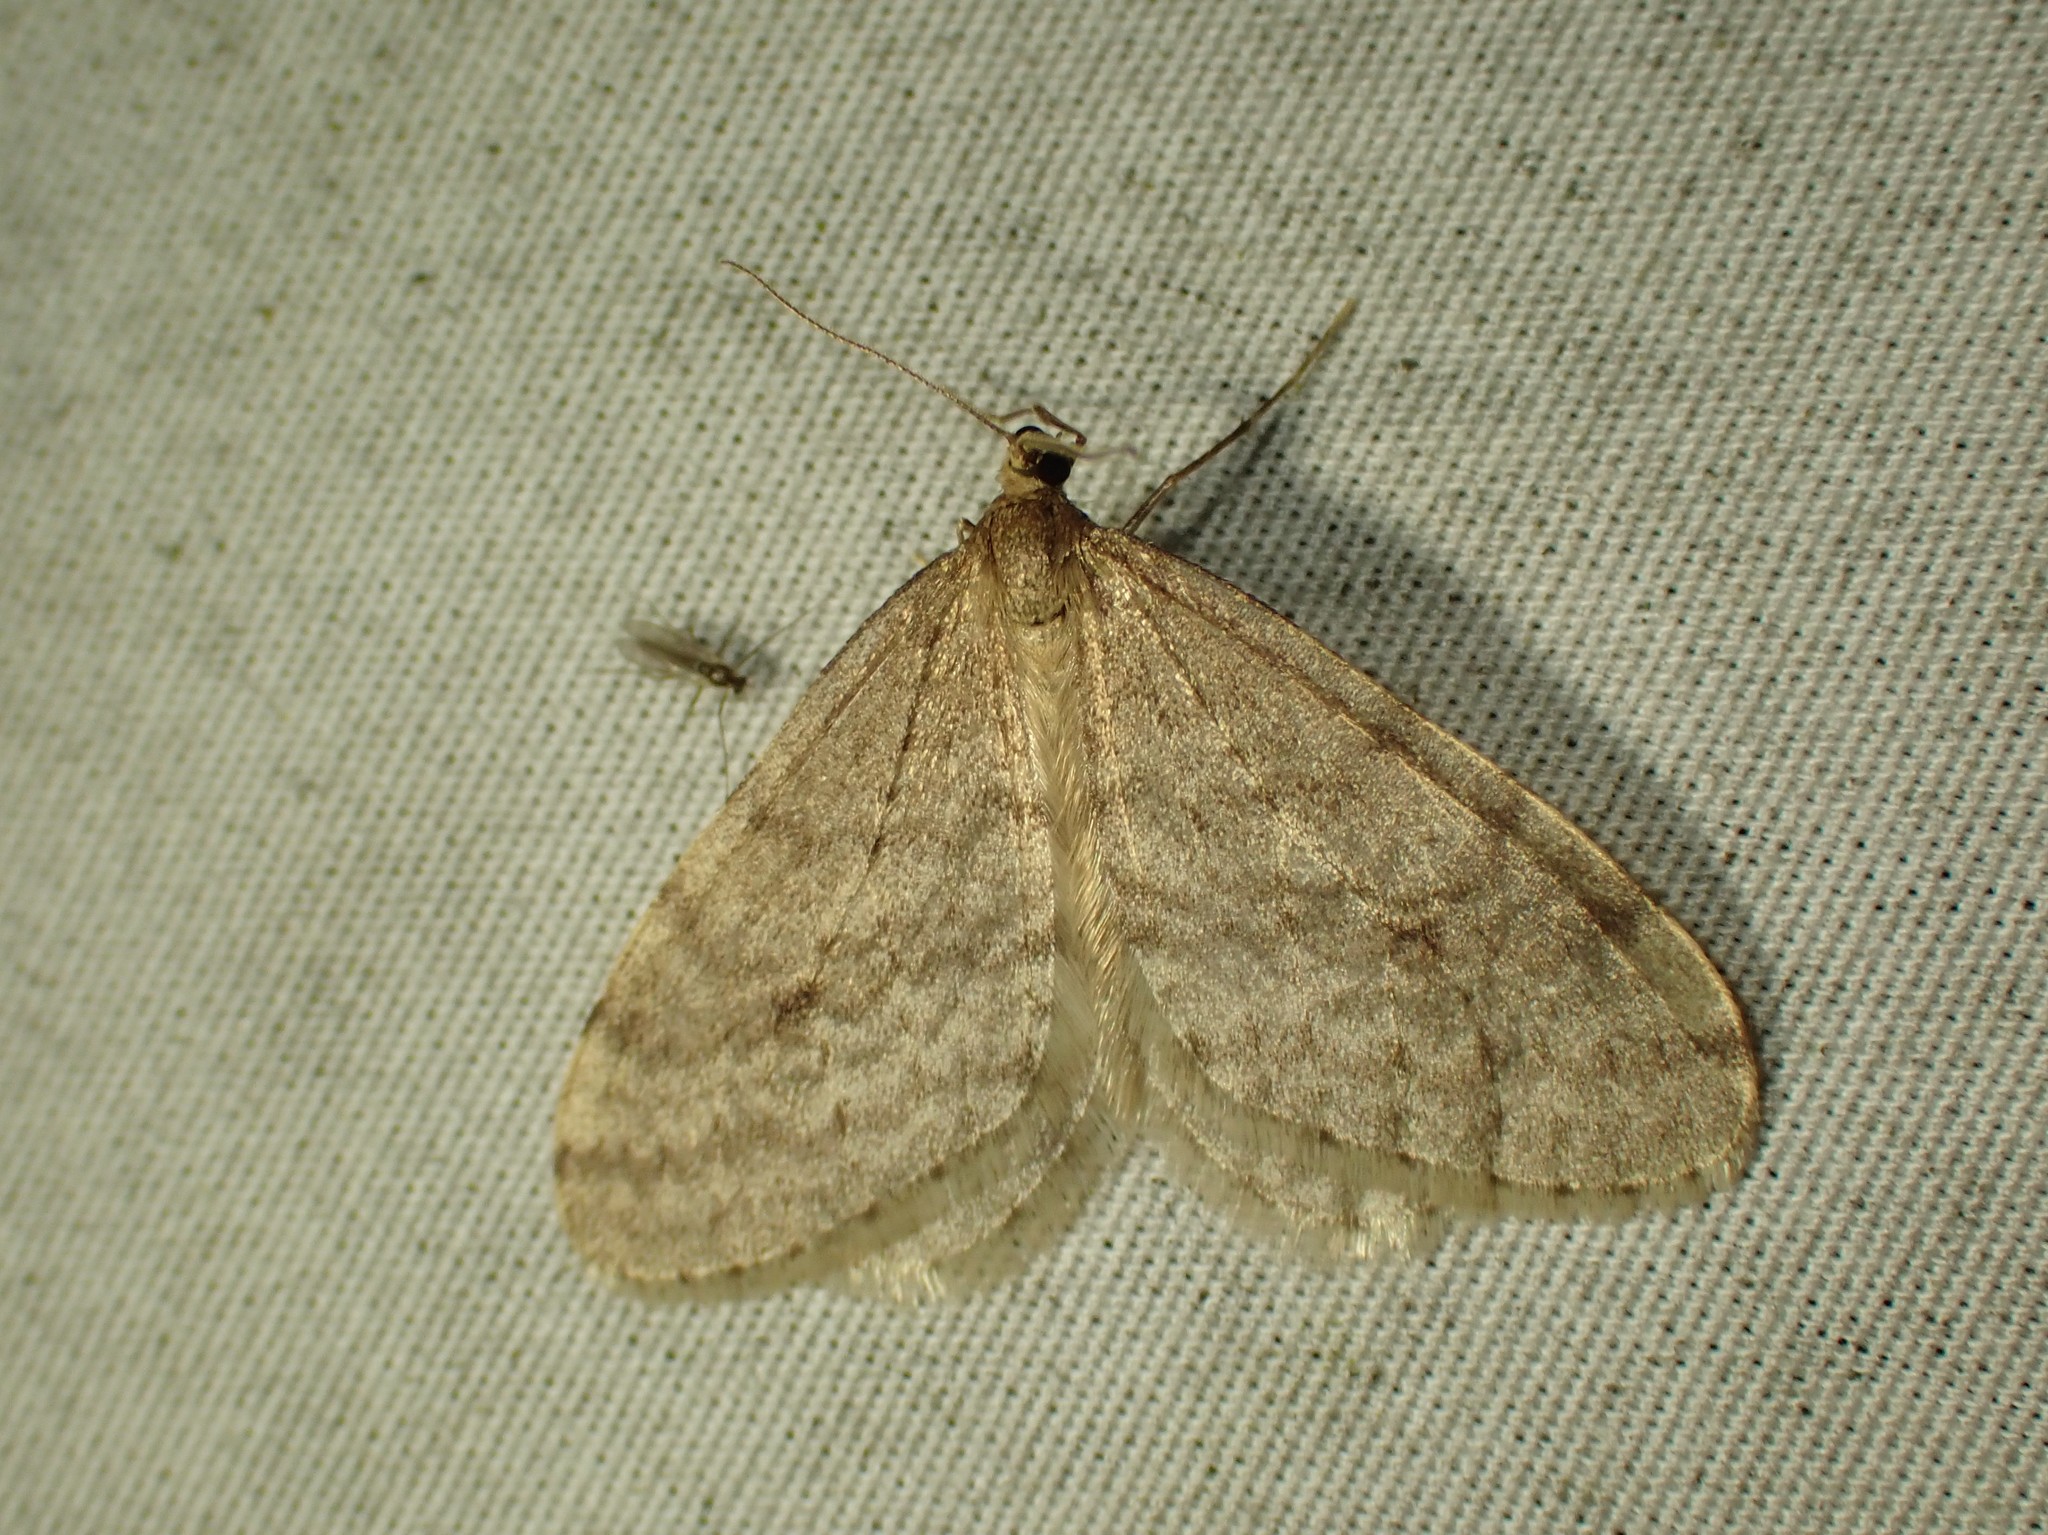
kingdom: Animalia
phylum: Arthropoda
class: Insecta
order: Lepidoptera
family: Geometridae
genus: Operophtera
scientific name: Operophtera bruceata
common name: Bruce spanworm
